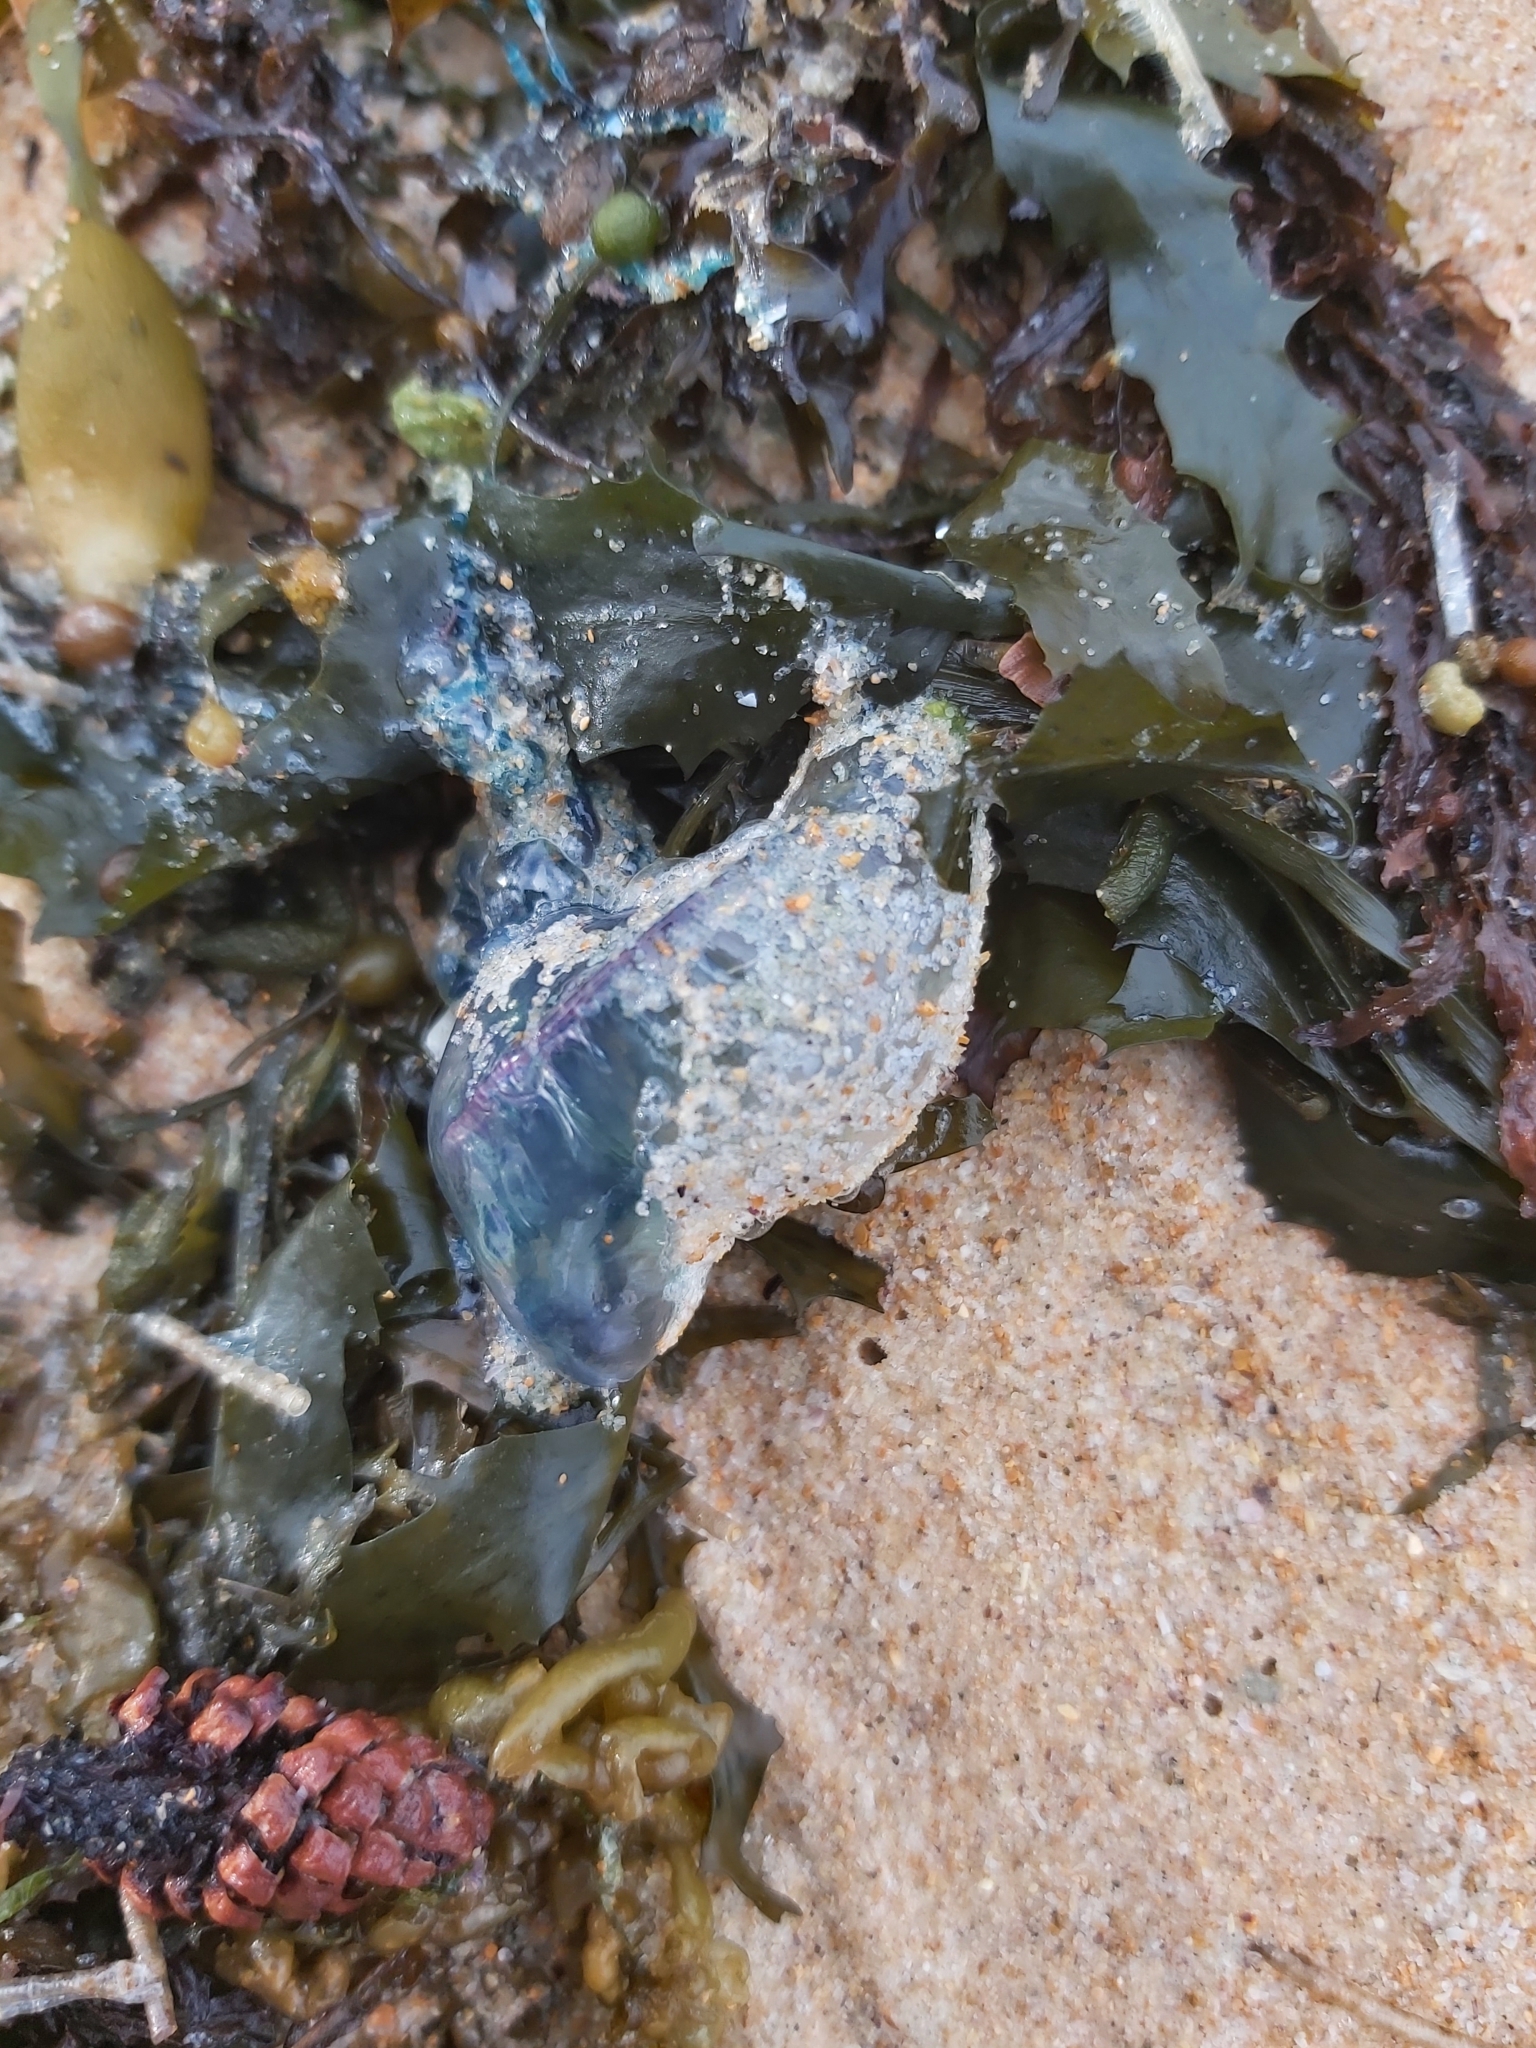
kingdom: Animalia
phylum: Cnidaria
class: Hydrozoa
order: Siphonophorae
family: Physaliidae
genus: Physalia
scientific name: Physalia physalis
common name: Portuguese man-of-war
